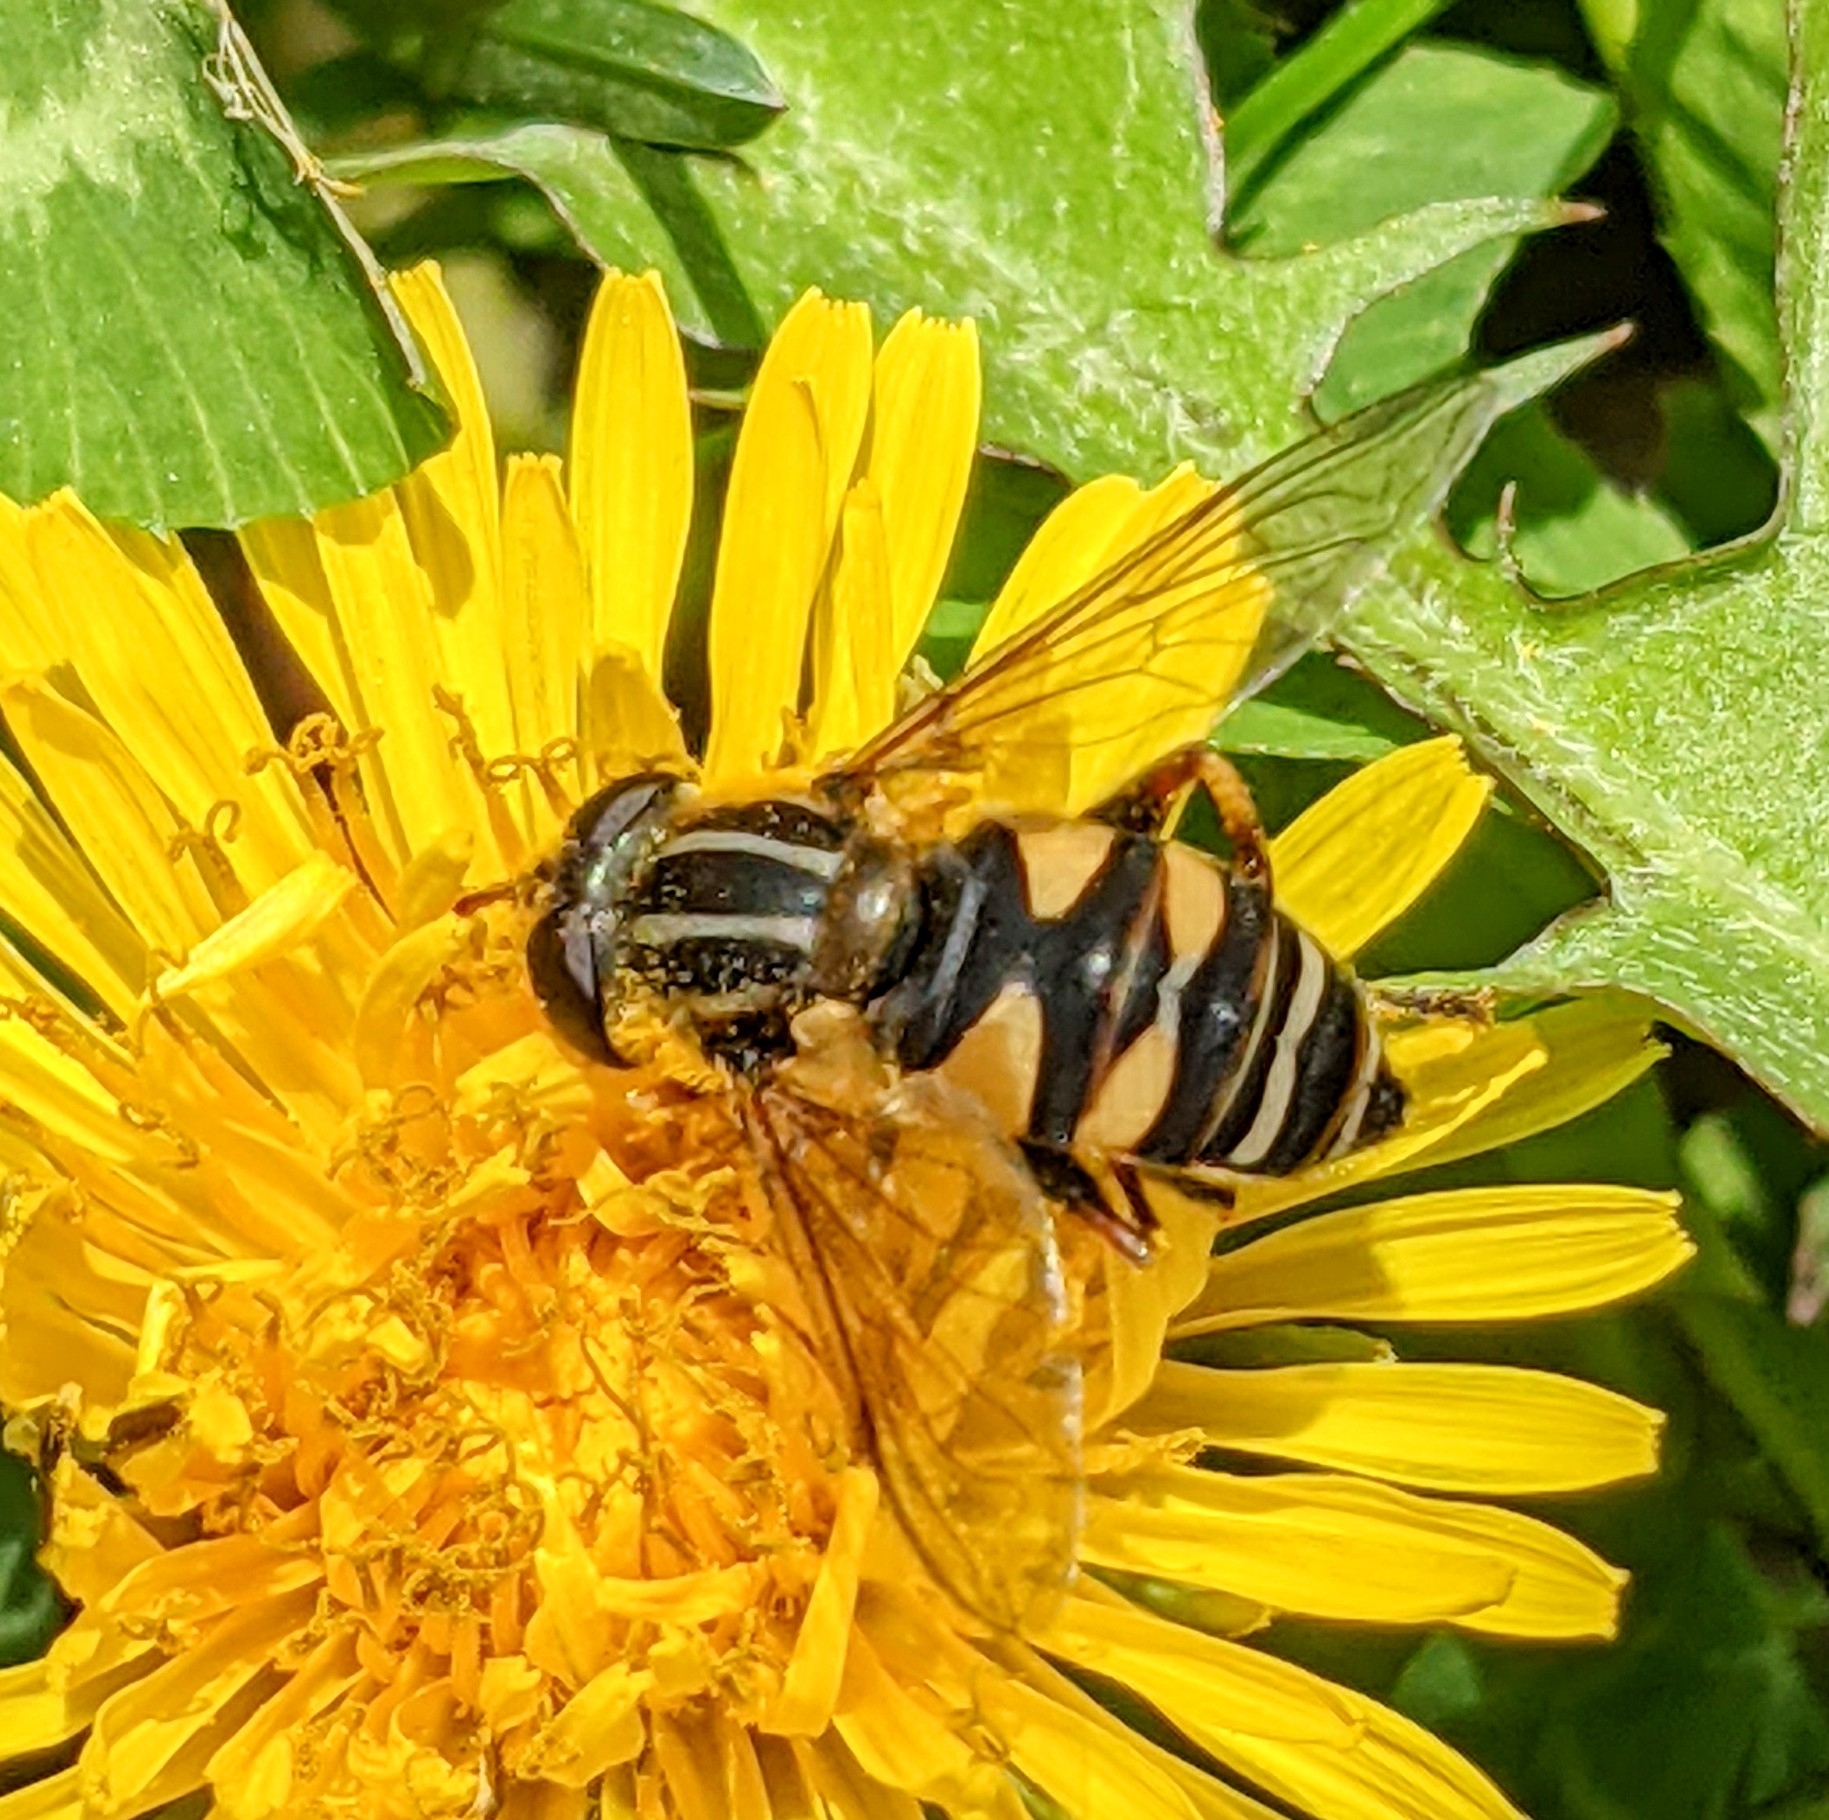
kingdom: Animalia
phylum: Arthropoda
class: Insecta
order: Diptera
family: Syrphidae
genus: Helophilus
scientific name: Helophilus fasciatus
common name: Narrow-headed marsh fly
